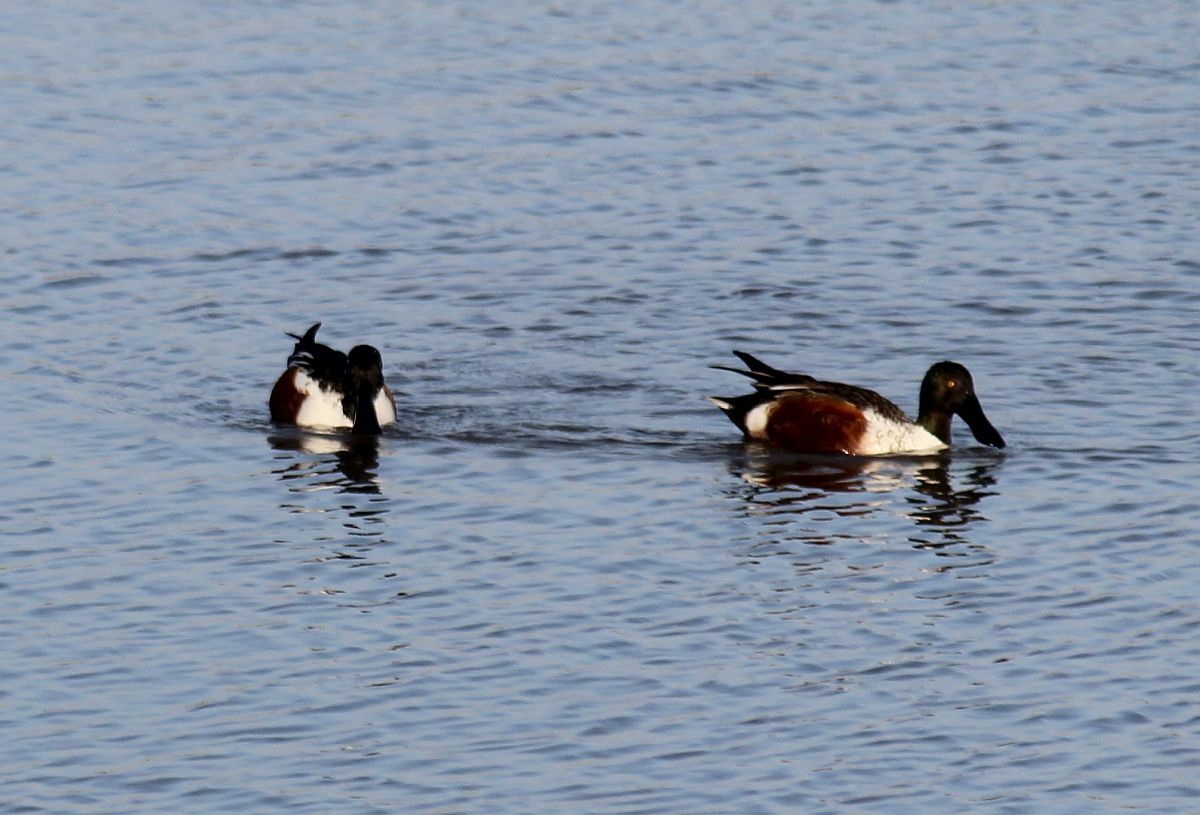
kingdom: Animalia
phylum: Chordata
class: Aves
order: Anseriformes
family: Anatidae
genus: Spatula
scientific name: Spatula clypeata
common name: Northern shoveler
